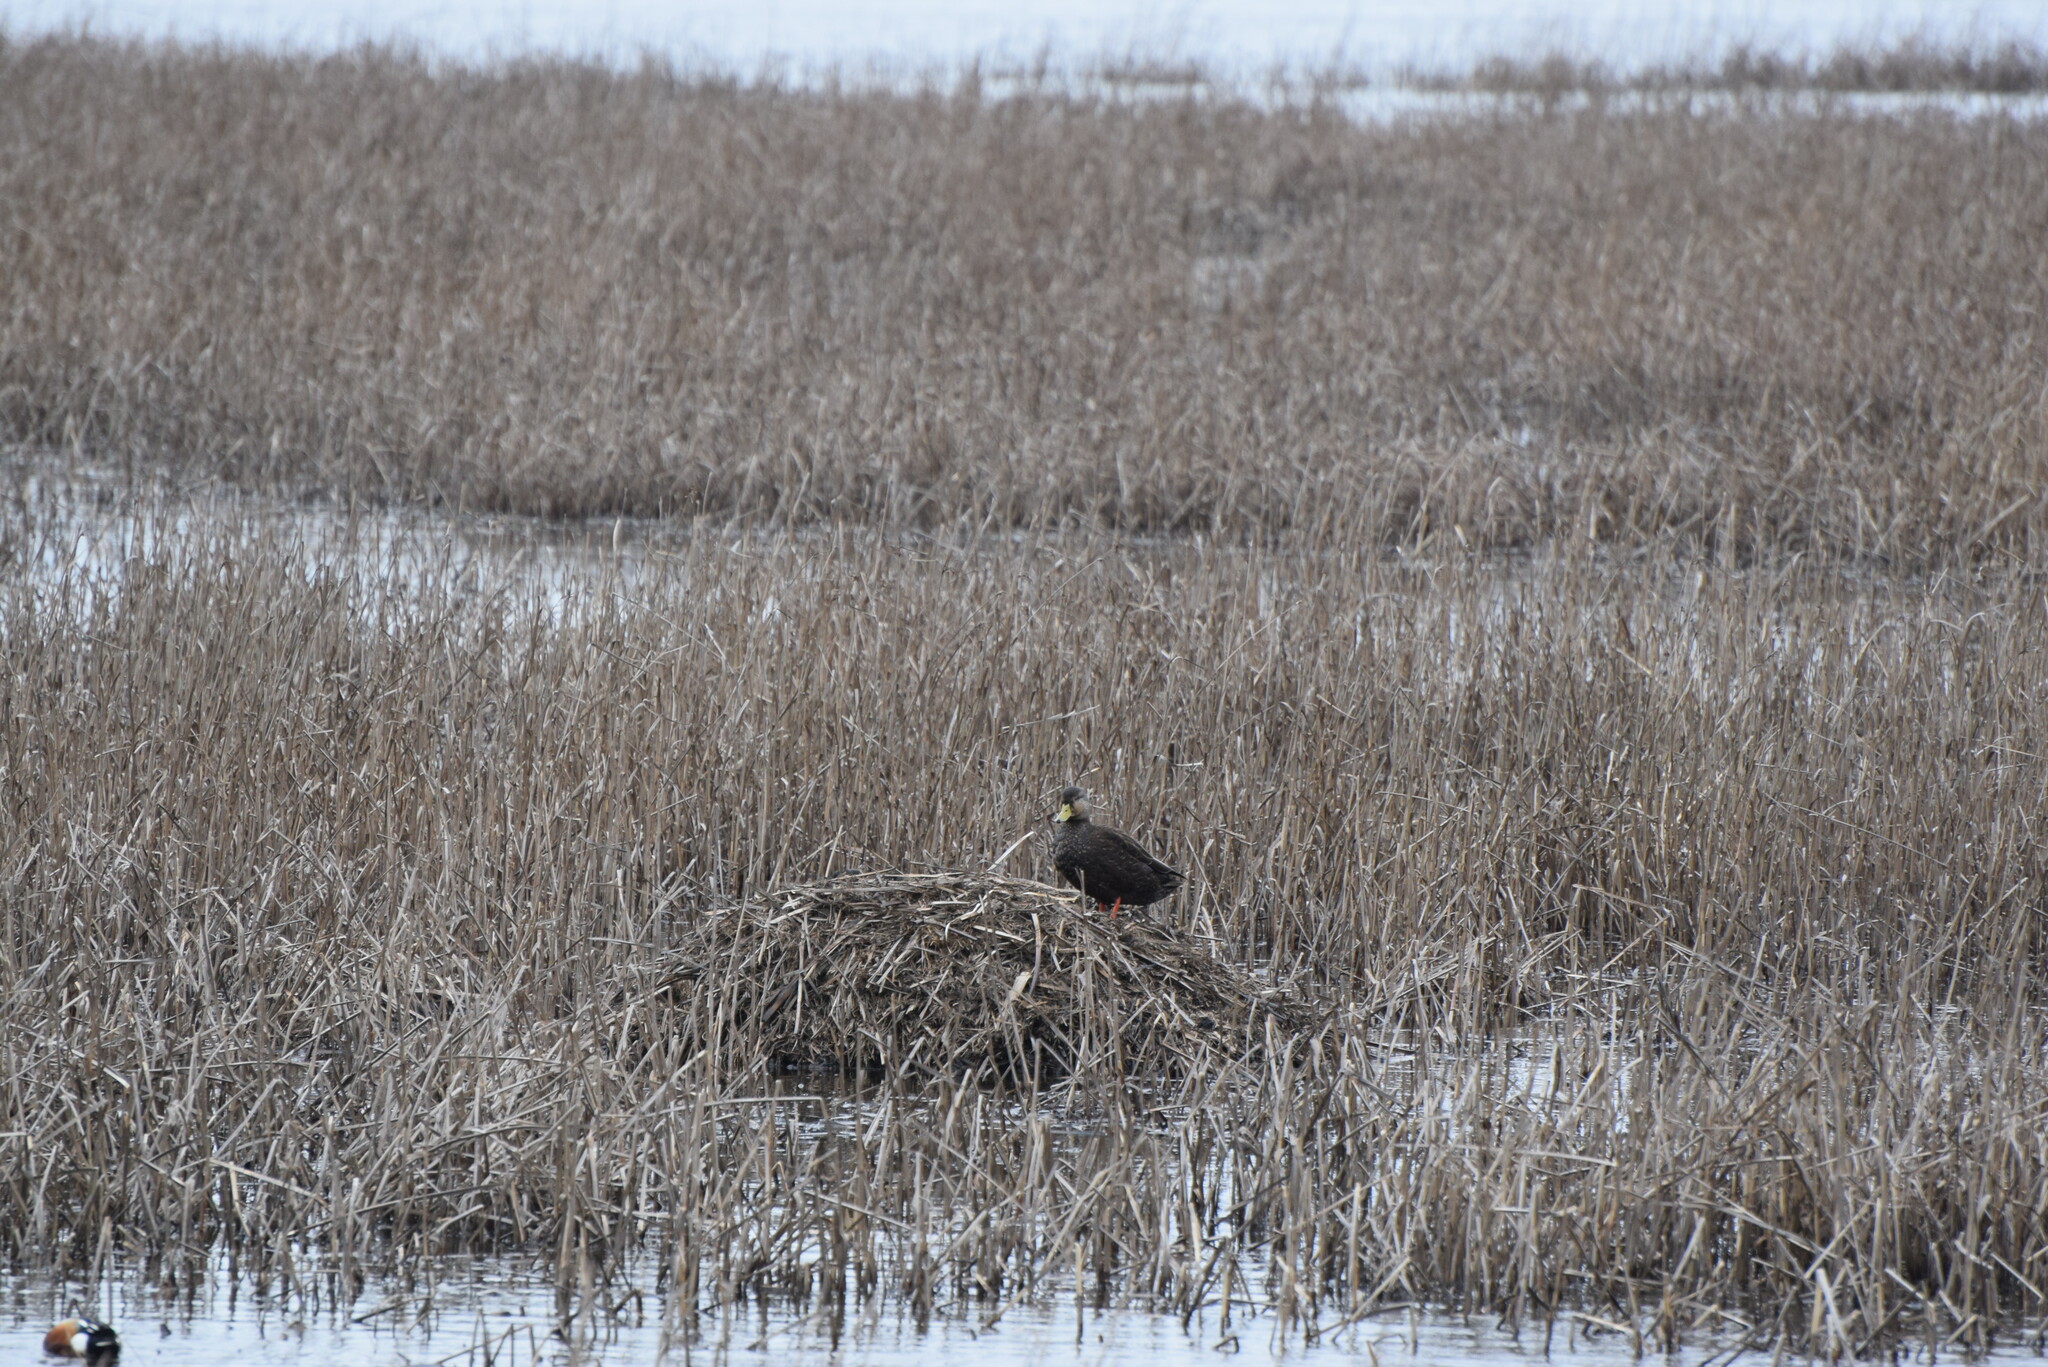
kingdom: Animalia
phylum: Chordata
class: Aves
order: Anseriformes
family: Anatidae
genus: Anas
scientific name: Anas rubripes
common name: American black duck
